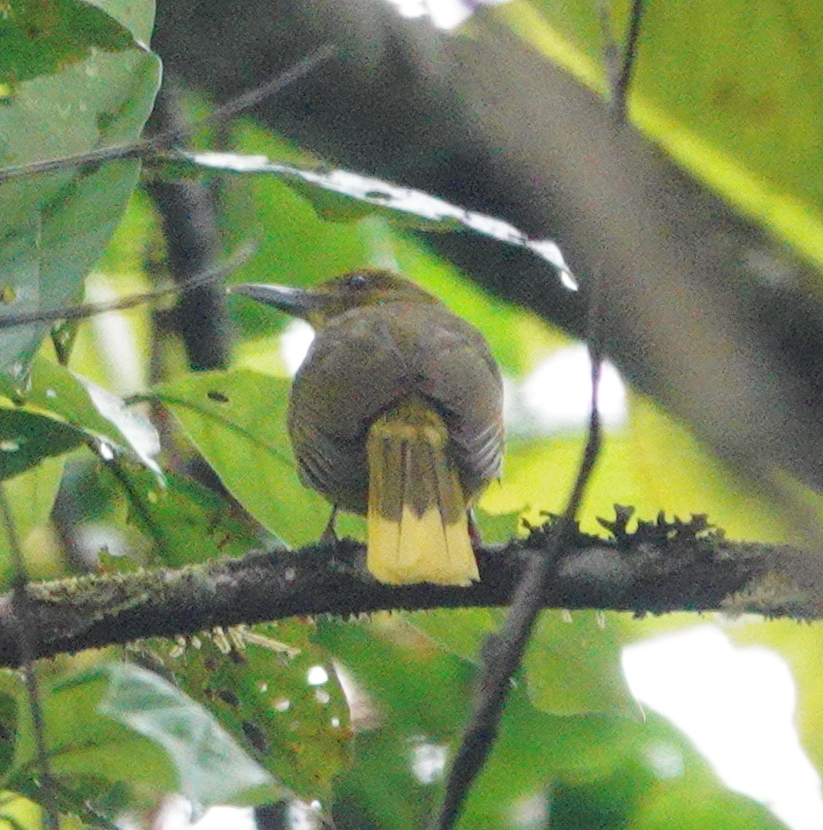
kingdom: Animalia
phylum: Chordata
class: Aves
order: Passeriformes
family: Pycnonotidae
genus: Thapsinillas
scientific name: Thapsinillas affinis
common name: Seram golden bulbul
